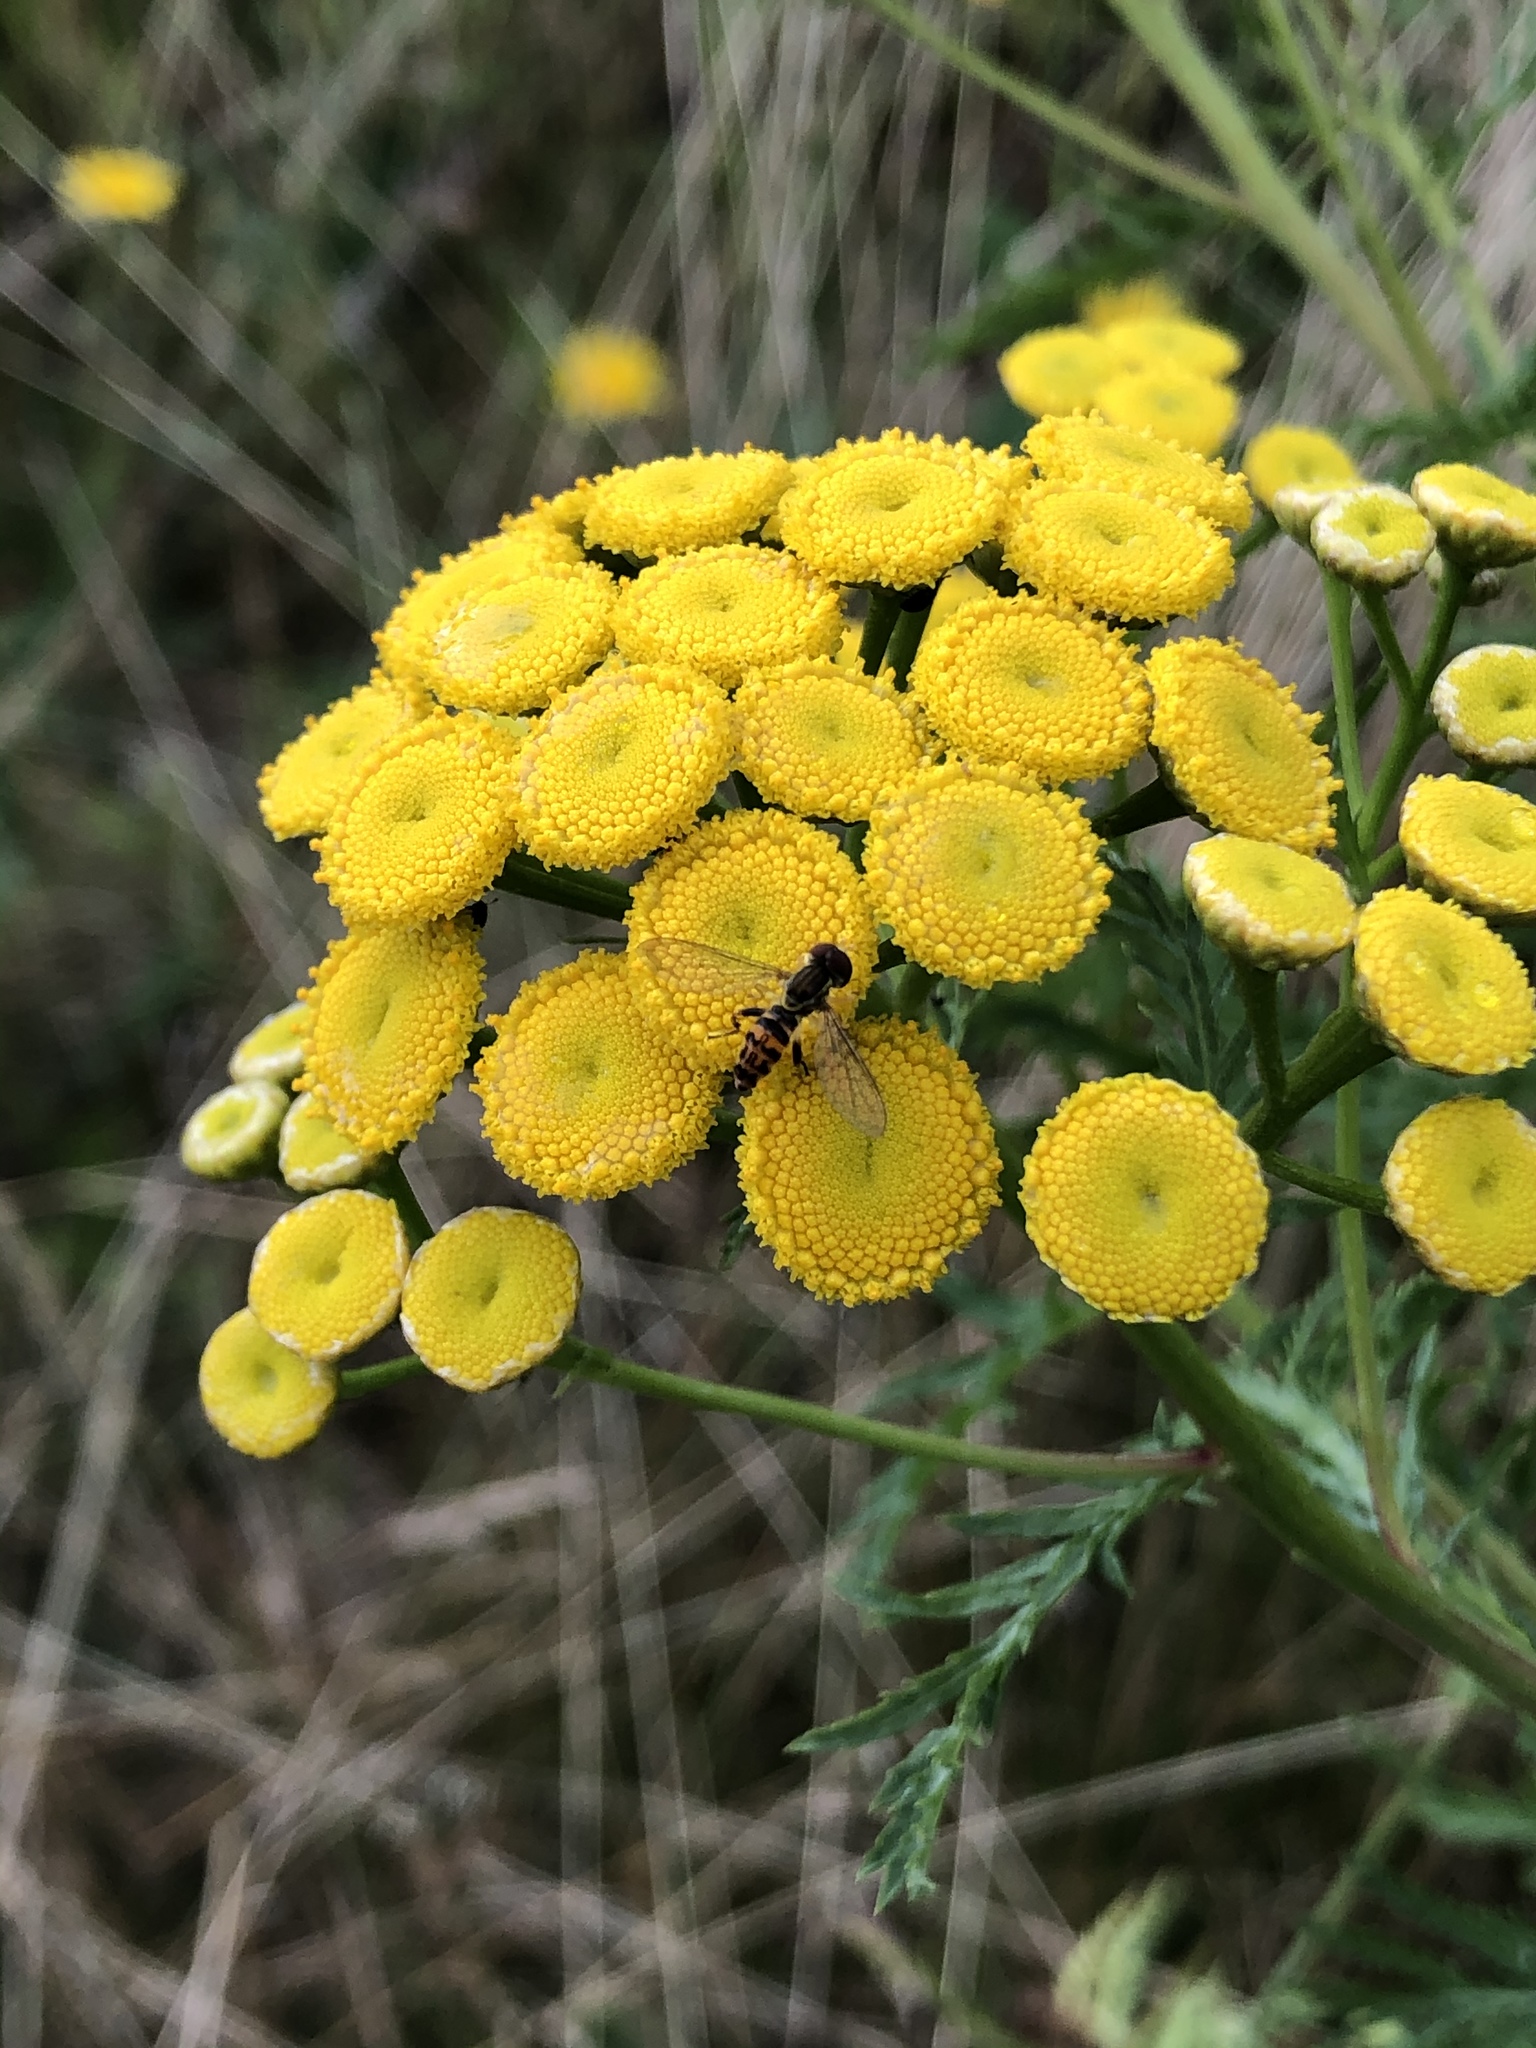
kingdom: Plantae
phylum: Tracheophyta
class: Magnoliopsida
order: Asterales
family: Asteraceae
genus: Tanacetum
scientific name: Tanacetum vulgare
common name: Common tansy
